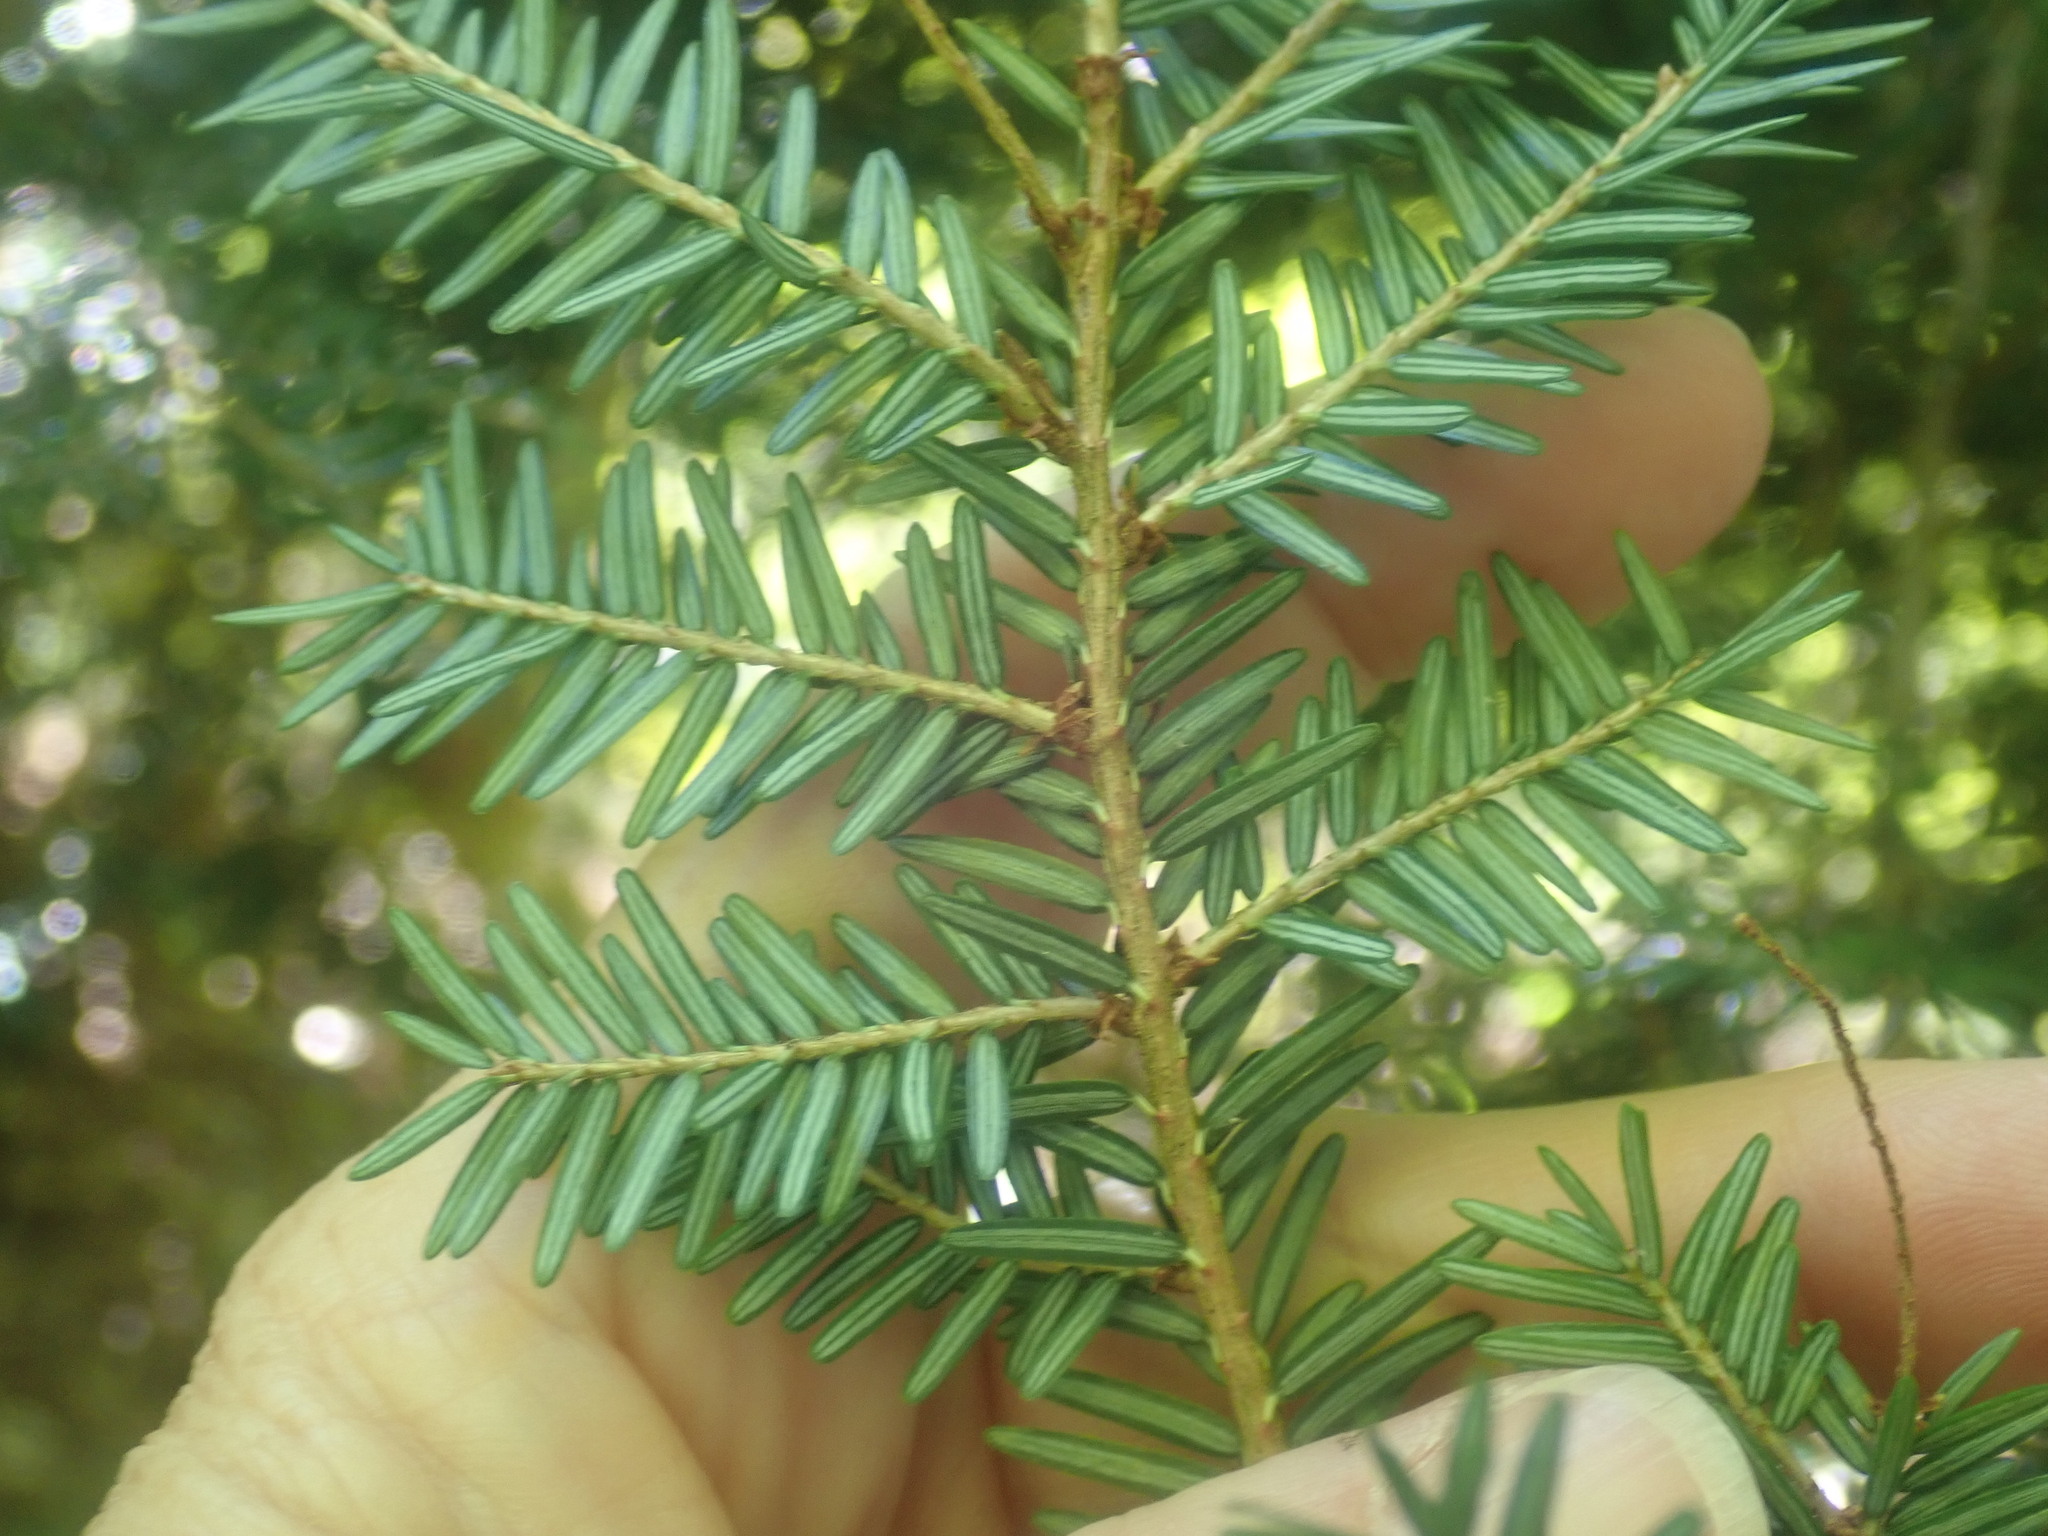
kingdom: Plantae
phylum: Tracheophyta
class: Pinopsida
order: Pinales
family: Pinaceae
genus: Tsuga
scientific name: Tsuga canadensis
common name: Eastern hemlock
